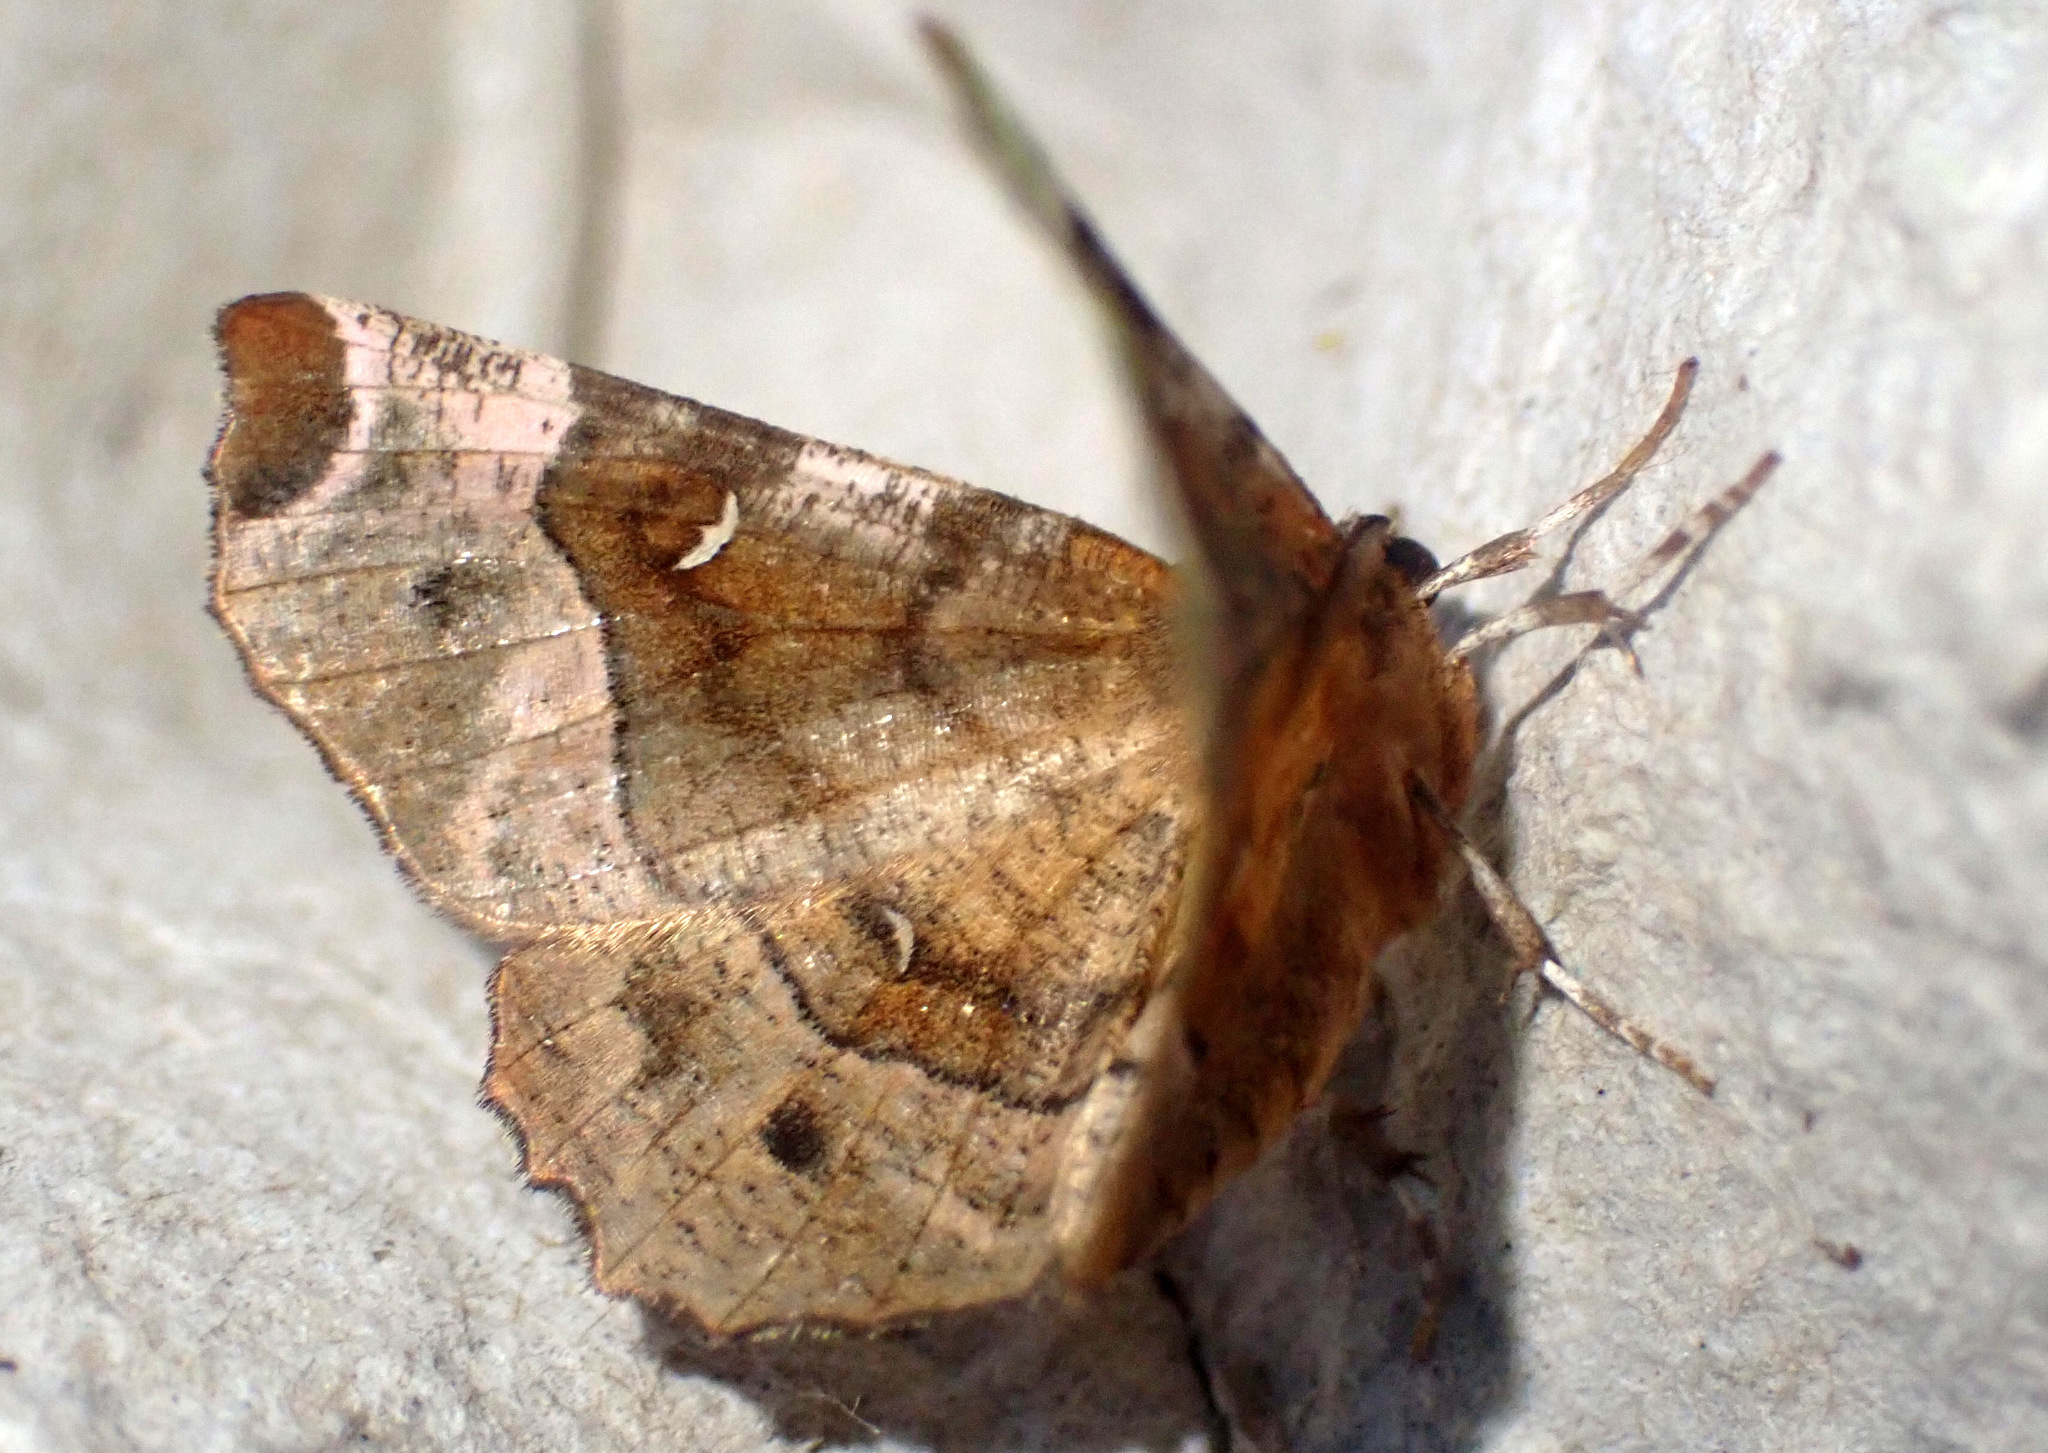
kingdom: Animalia
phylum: Arthropoda
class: Insecta
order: Lepidoptera
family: Geometridae
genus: Selenia
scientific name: Selenia tetralunaria
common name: Purple thorn
